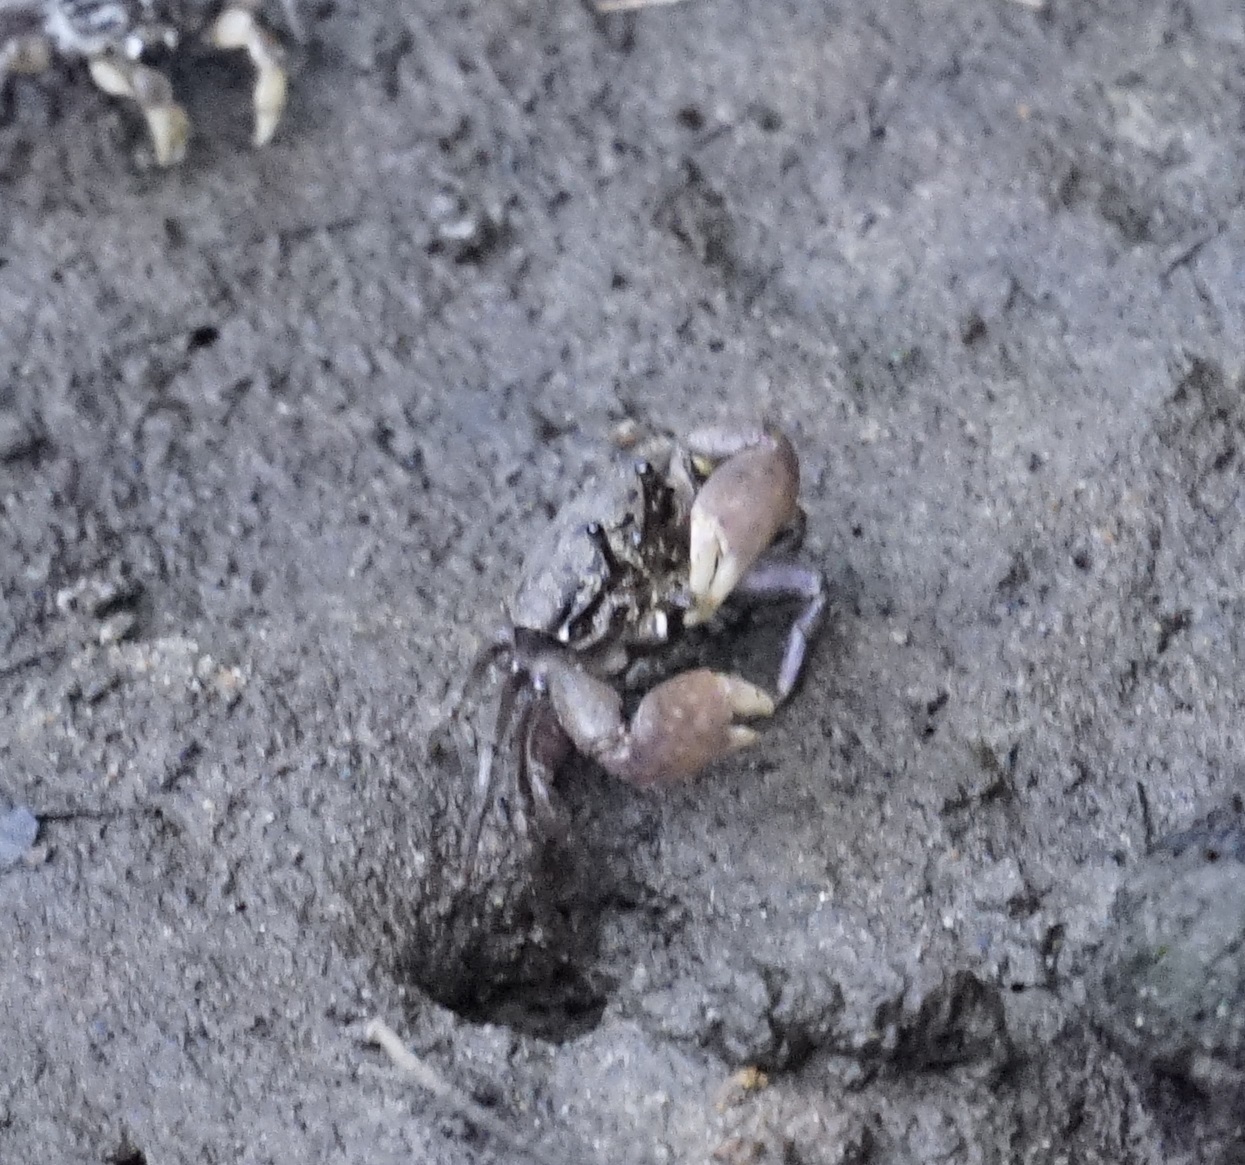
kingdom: Animalia
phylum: Arthropoda
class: Malacostraca
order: Decapoda
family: Heloeciidae
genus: Heloecius
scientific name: Heloecius cordiformis
